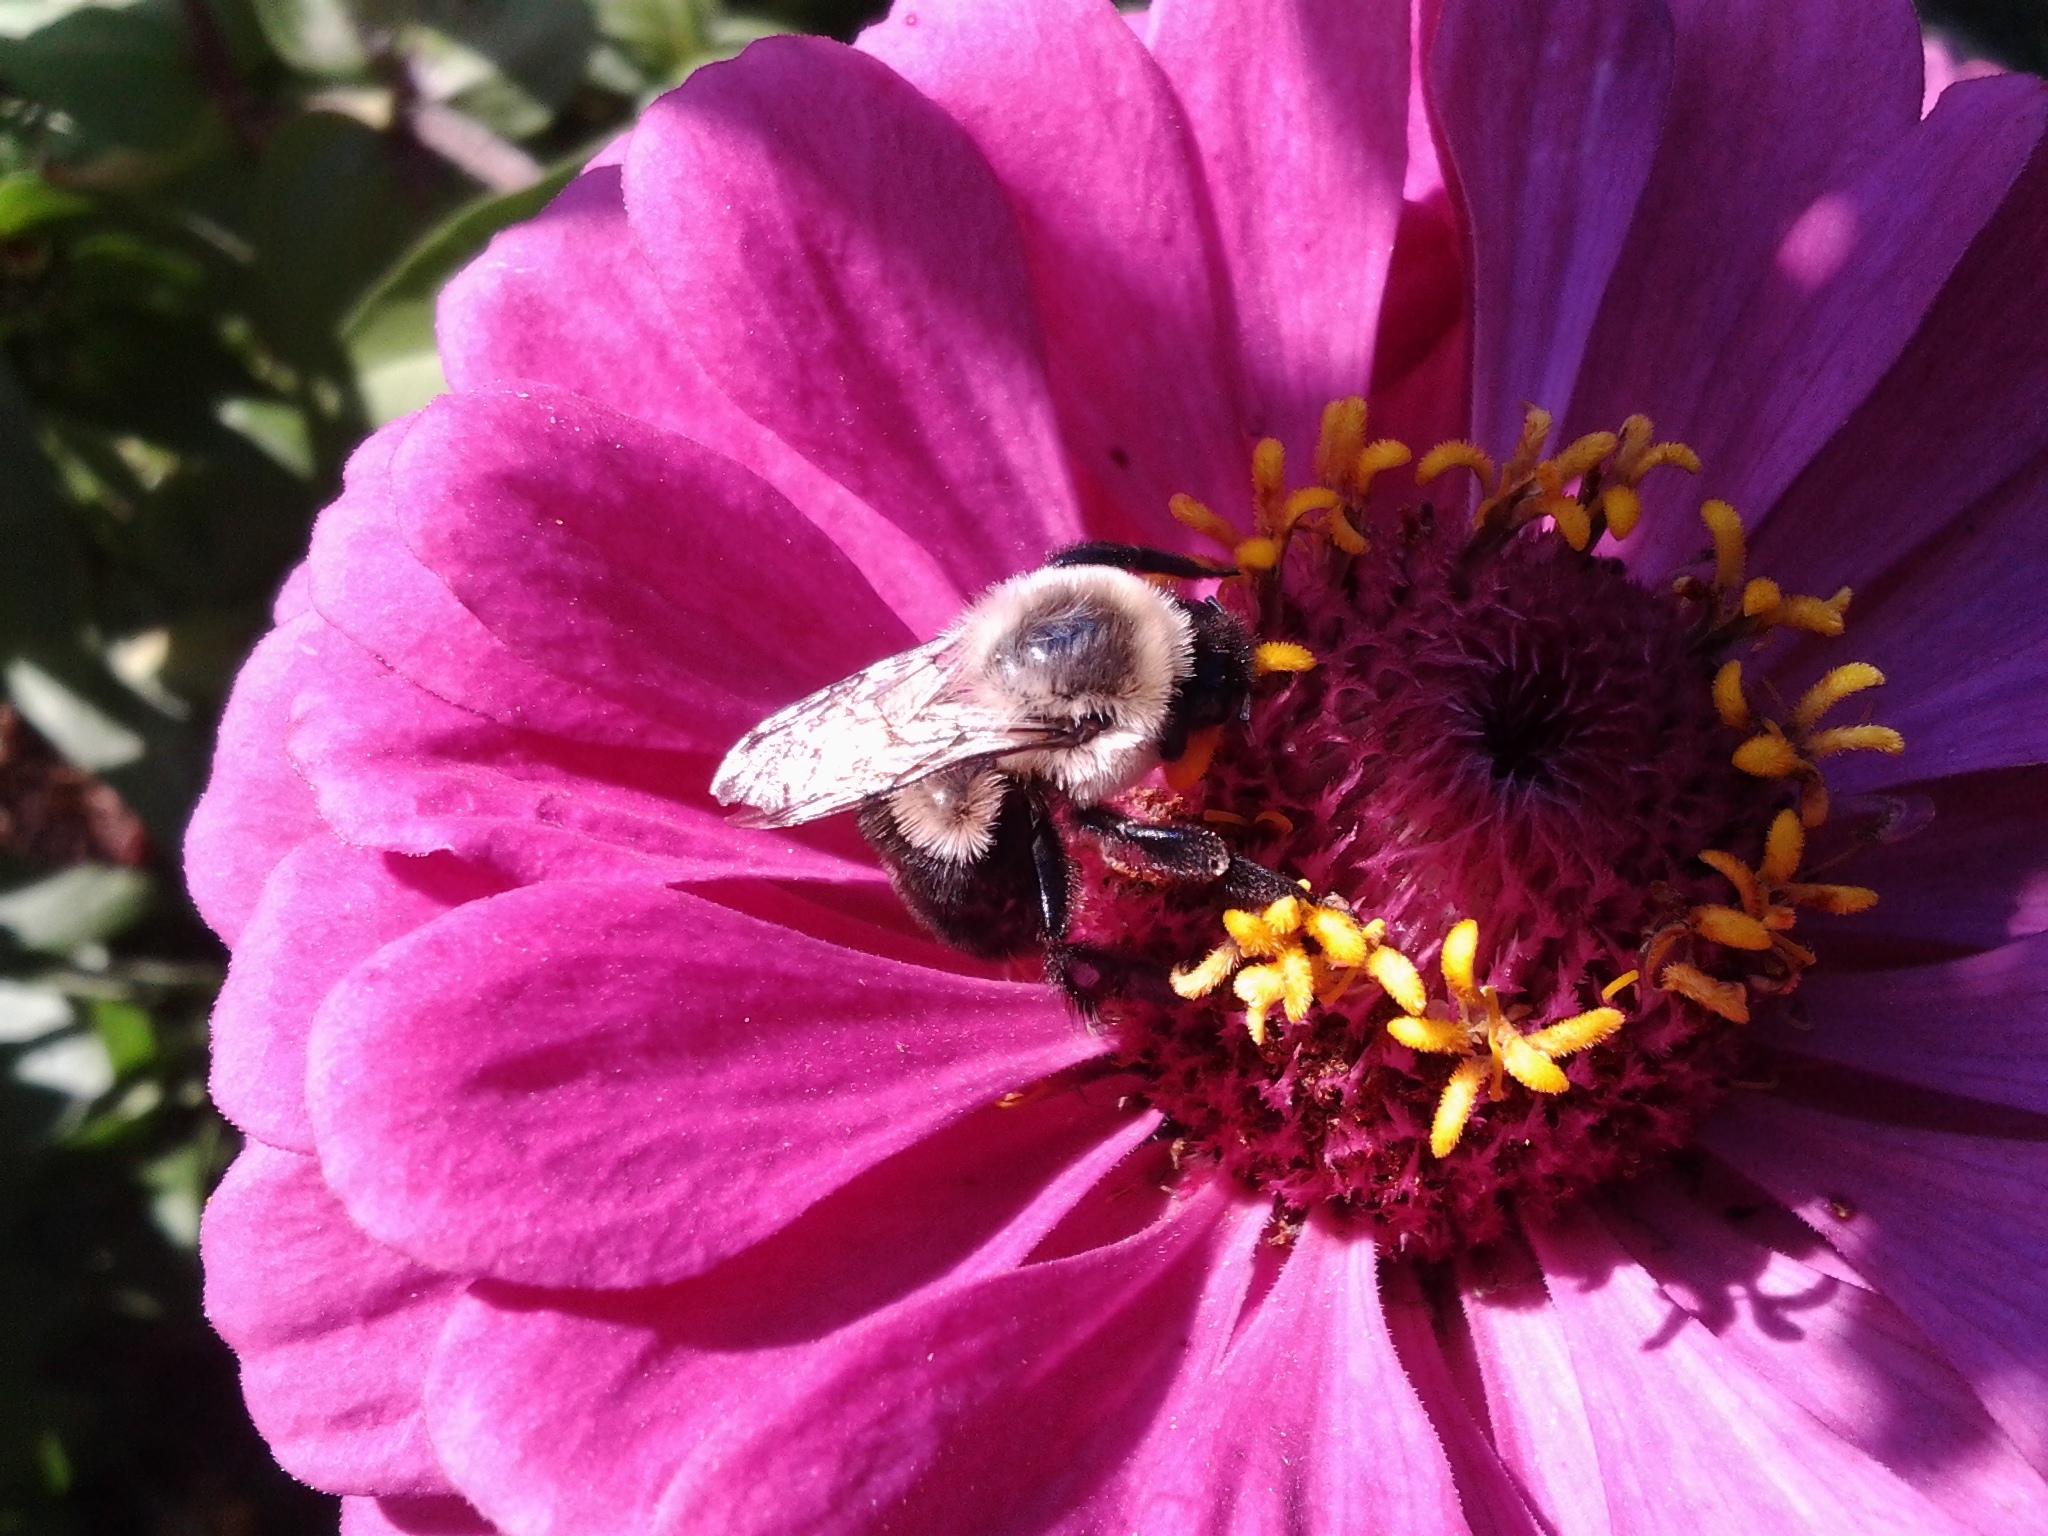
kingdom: Animalia
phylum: Arthropoda
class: Insecta
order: Hymenoptera
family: Apidae
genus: Bombus
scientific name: Bombus impatiens
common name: Common eastern bumble bee
